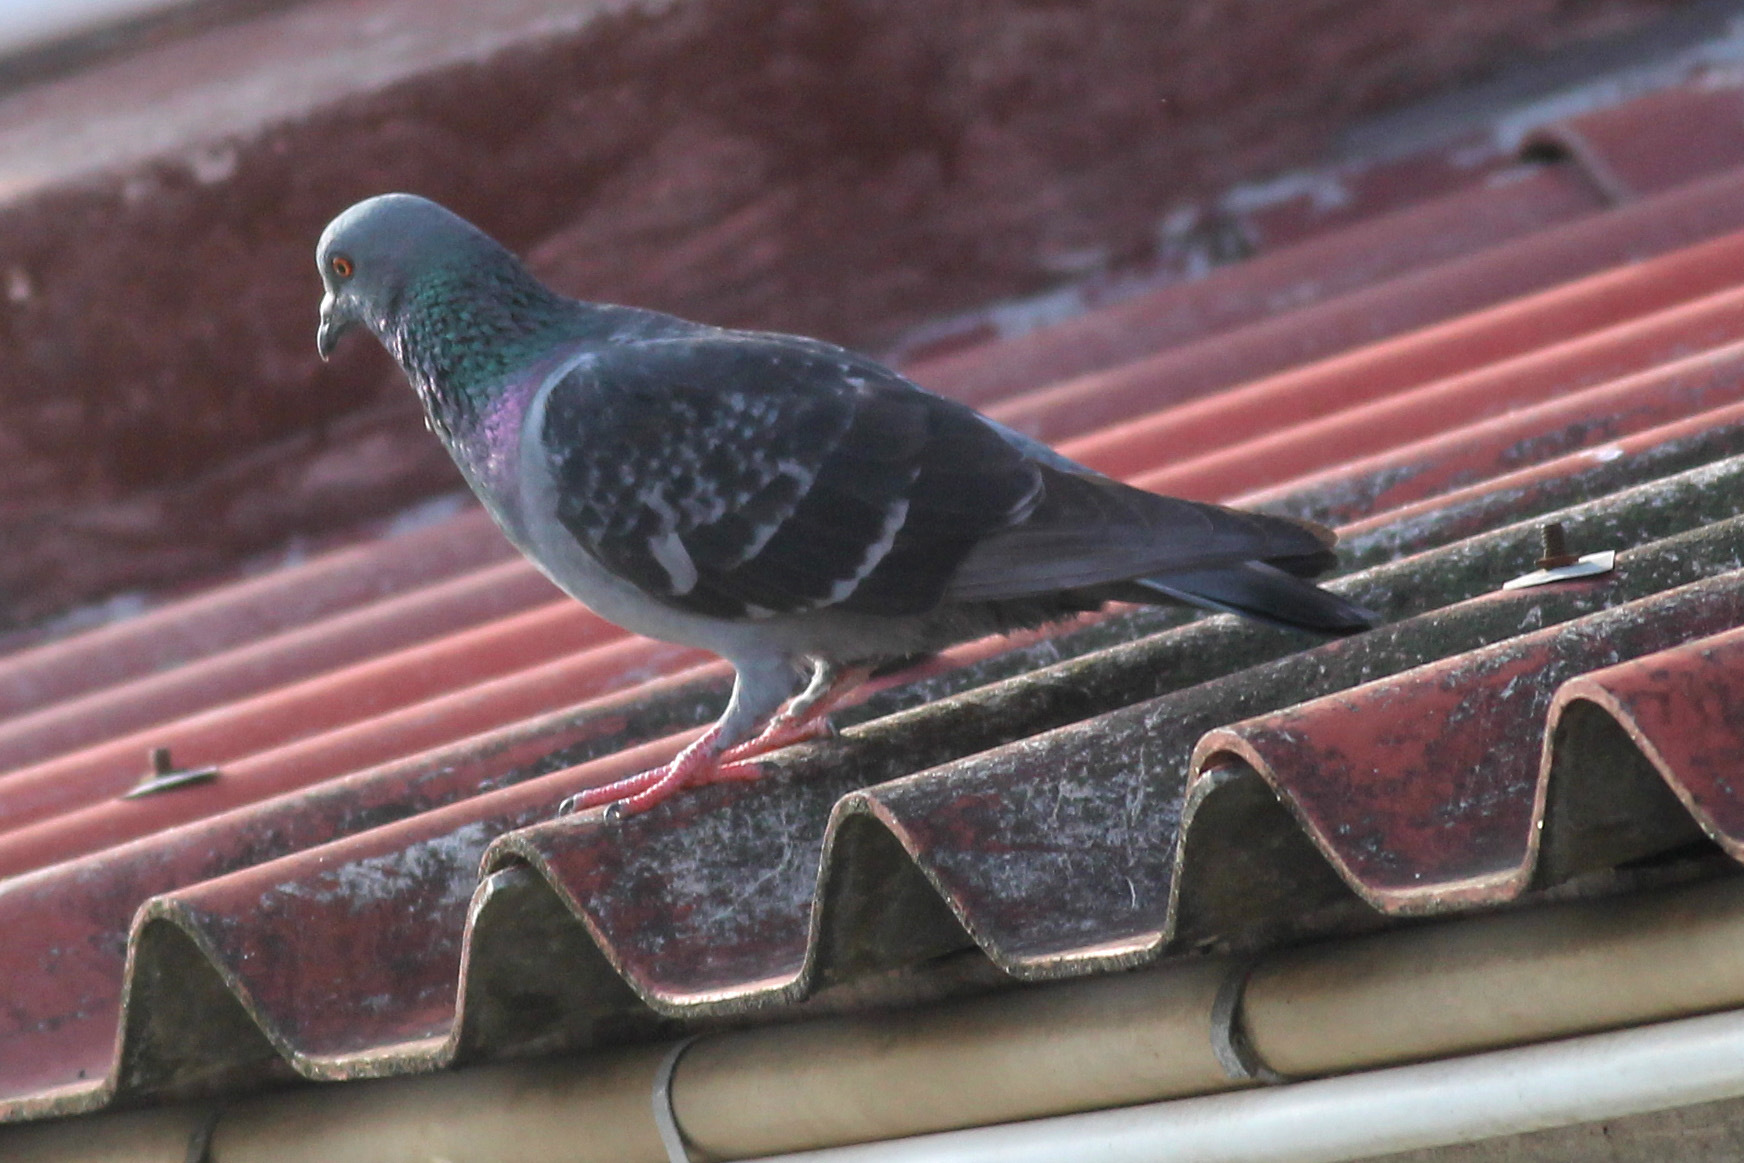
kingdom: Animalia
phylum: Chordata
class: Aves
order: Columbiformes
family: Columbidae
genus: Columba
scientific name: Columba livia
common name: Rock pigeon
